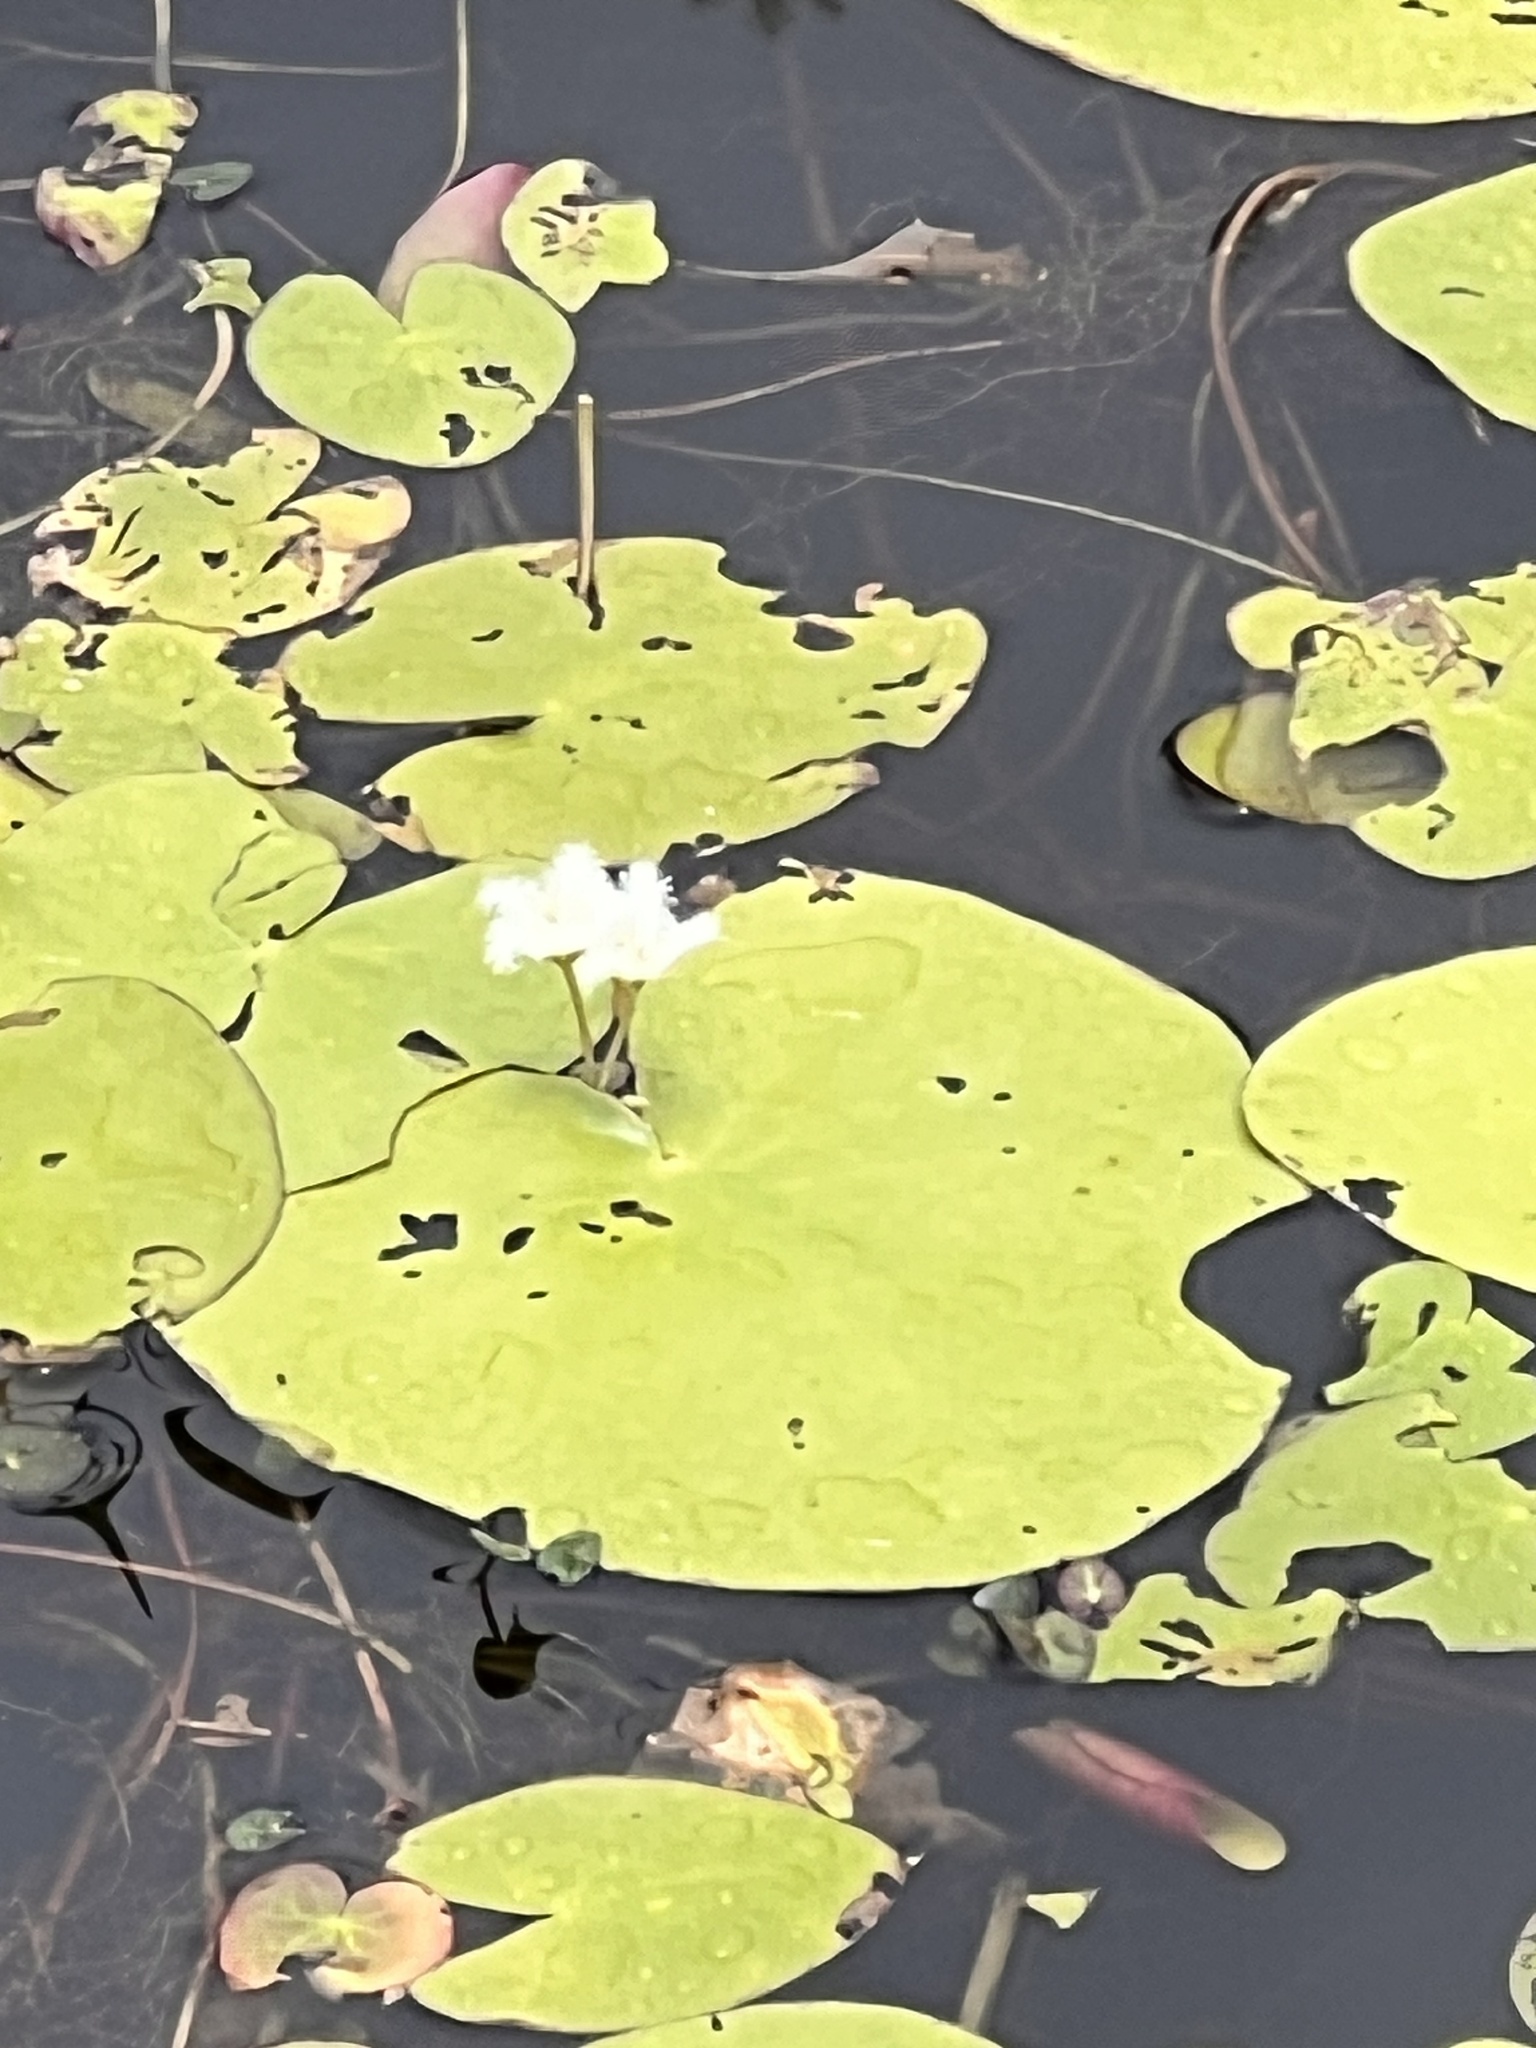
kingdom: Plantae
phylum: Tracheophyta
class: Magnoliopsida
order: Asterales
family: Menyanthaceae
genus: Nymphoides
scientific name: Nymphoides indica
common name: Water-snowflake
